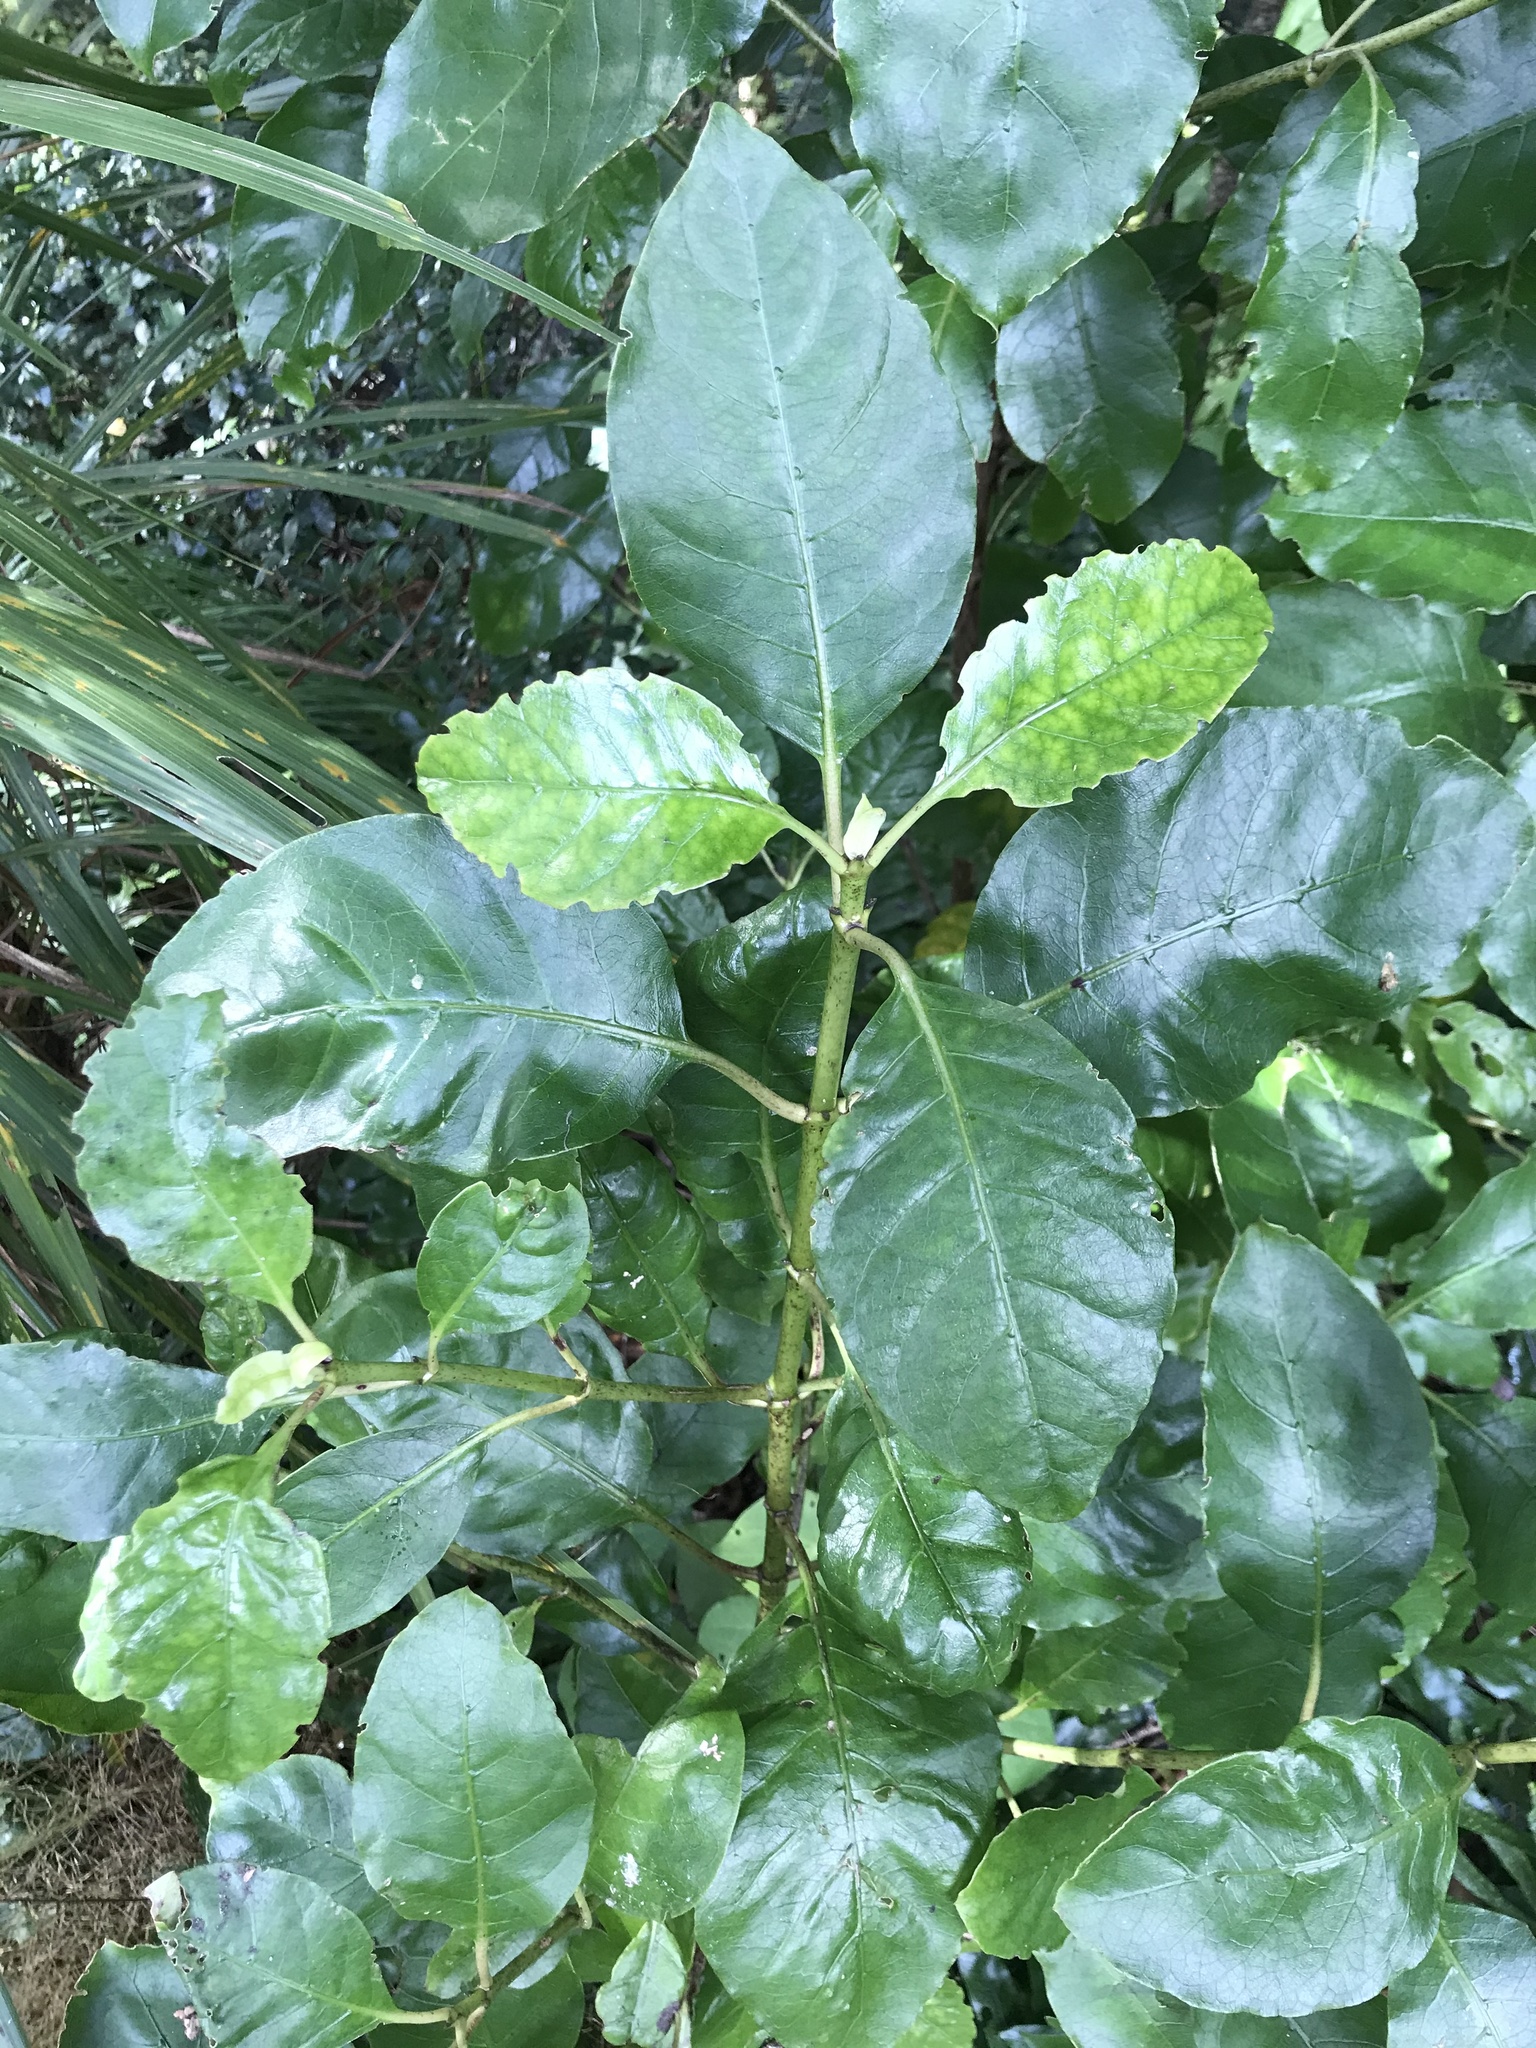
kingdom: Plantae
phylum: Tracheophyta
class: Magnoliopsida
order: Gentianales
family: Rubiaceae
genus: Coprosma
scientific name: Coprosma autumnalis
